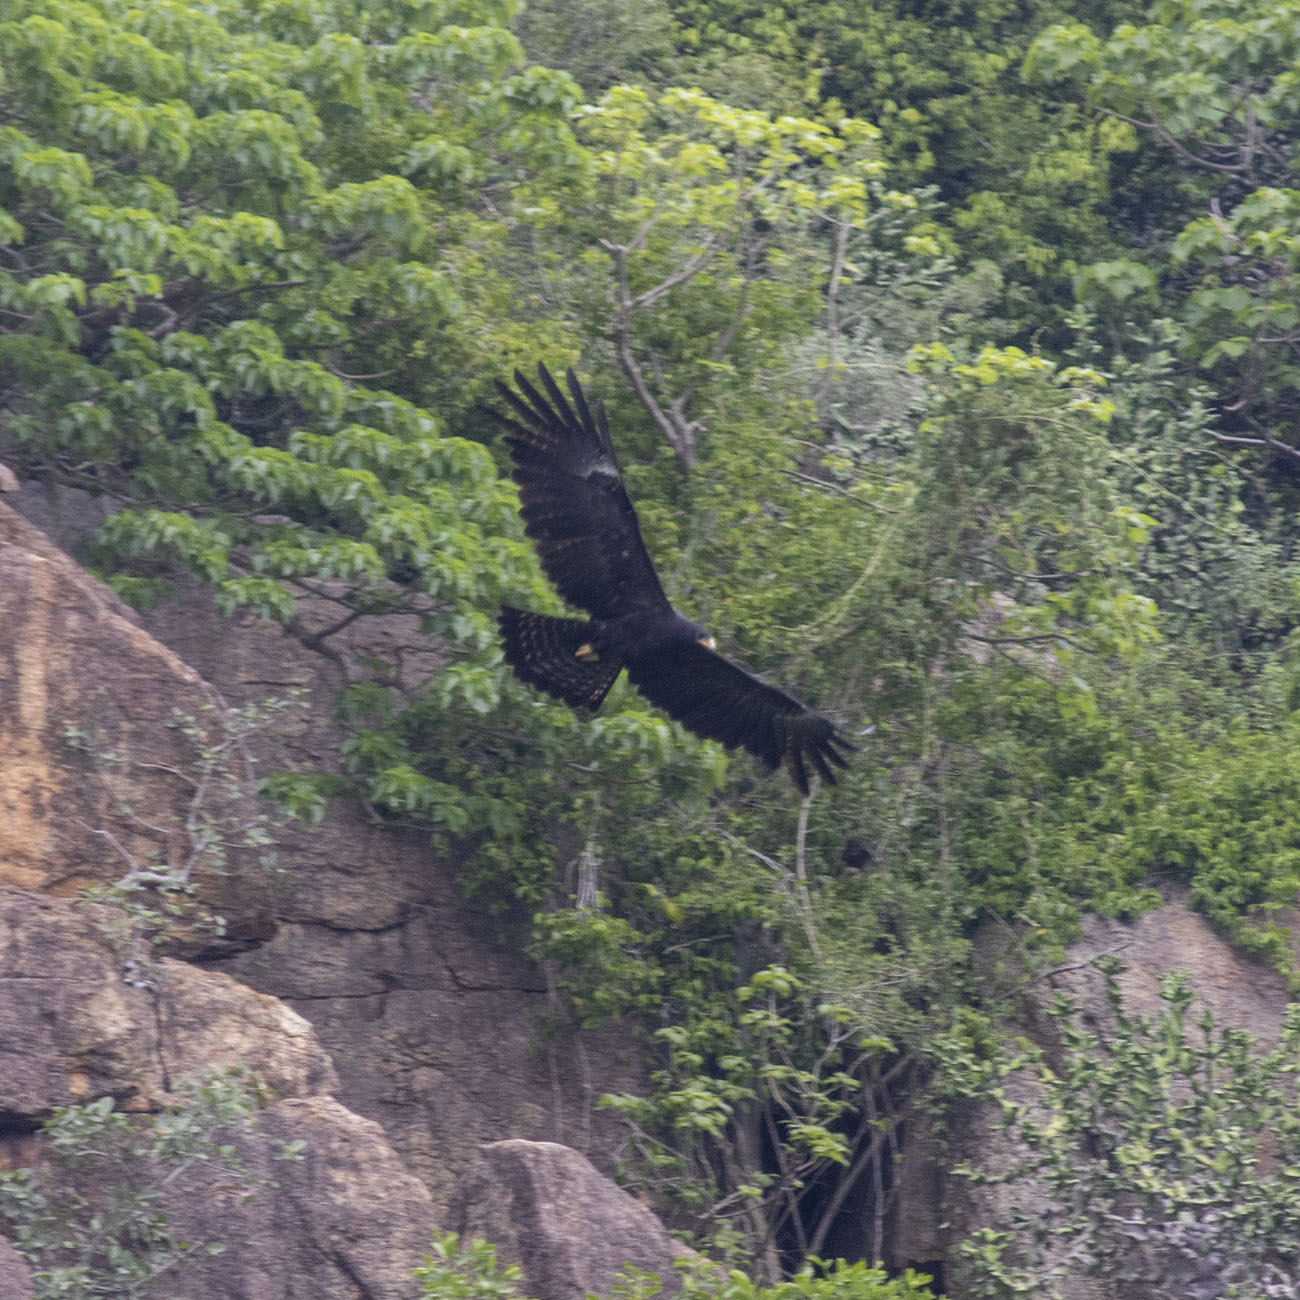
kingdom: Animalia
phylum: Chordata
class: Aves
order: Accipitriformes
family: Accipitridae
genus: Ictinaetus
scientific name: Ictinaetus malayensis
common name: Black eagle
